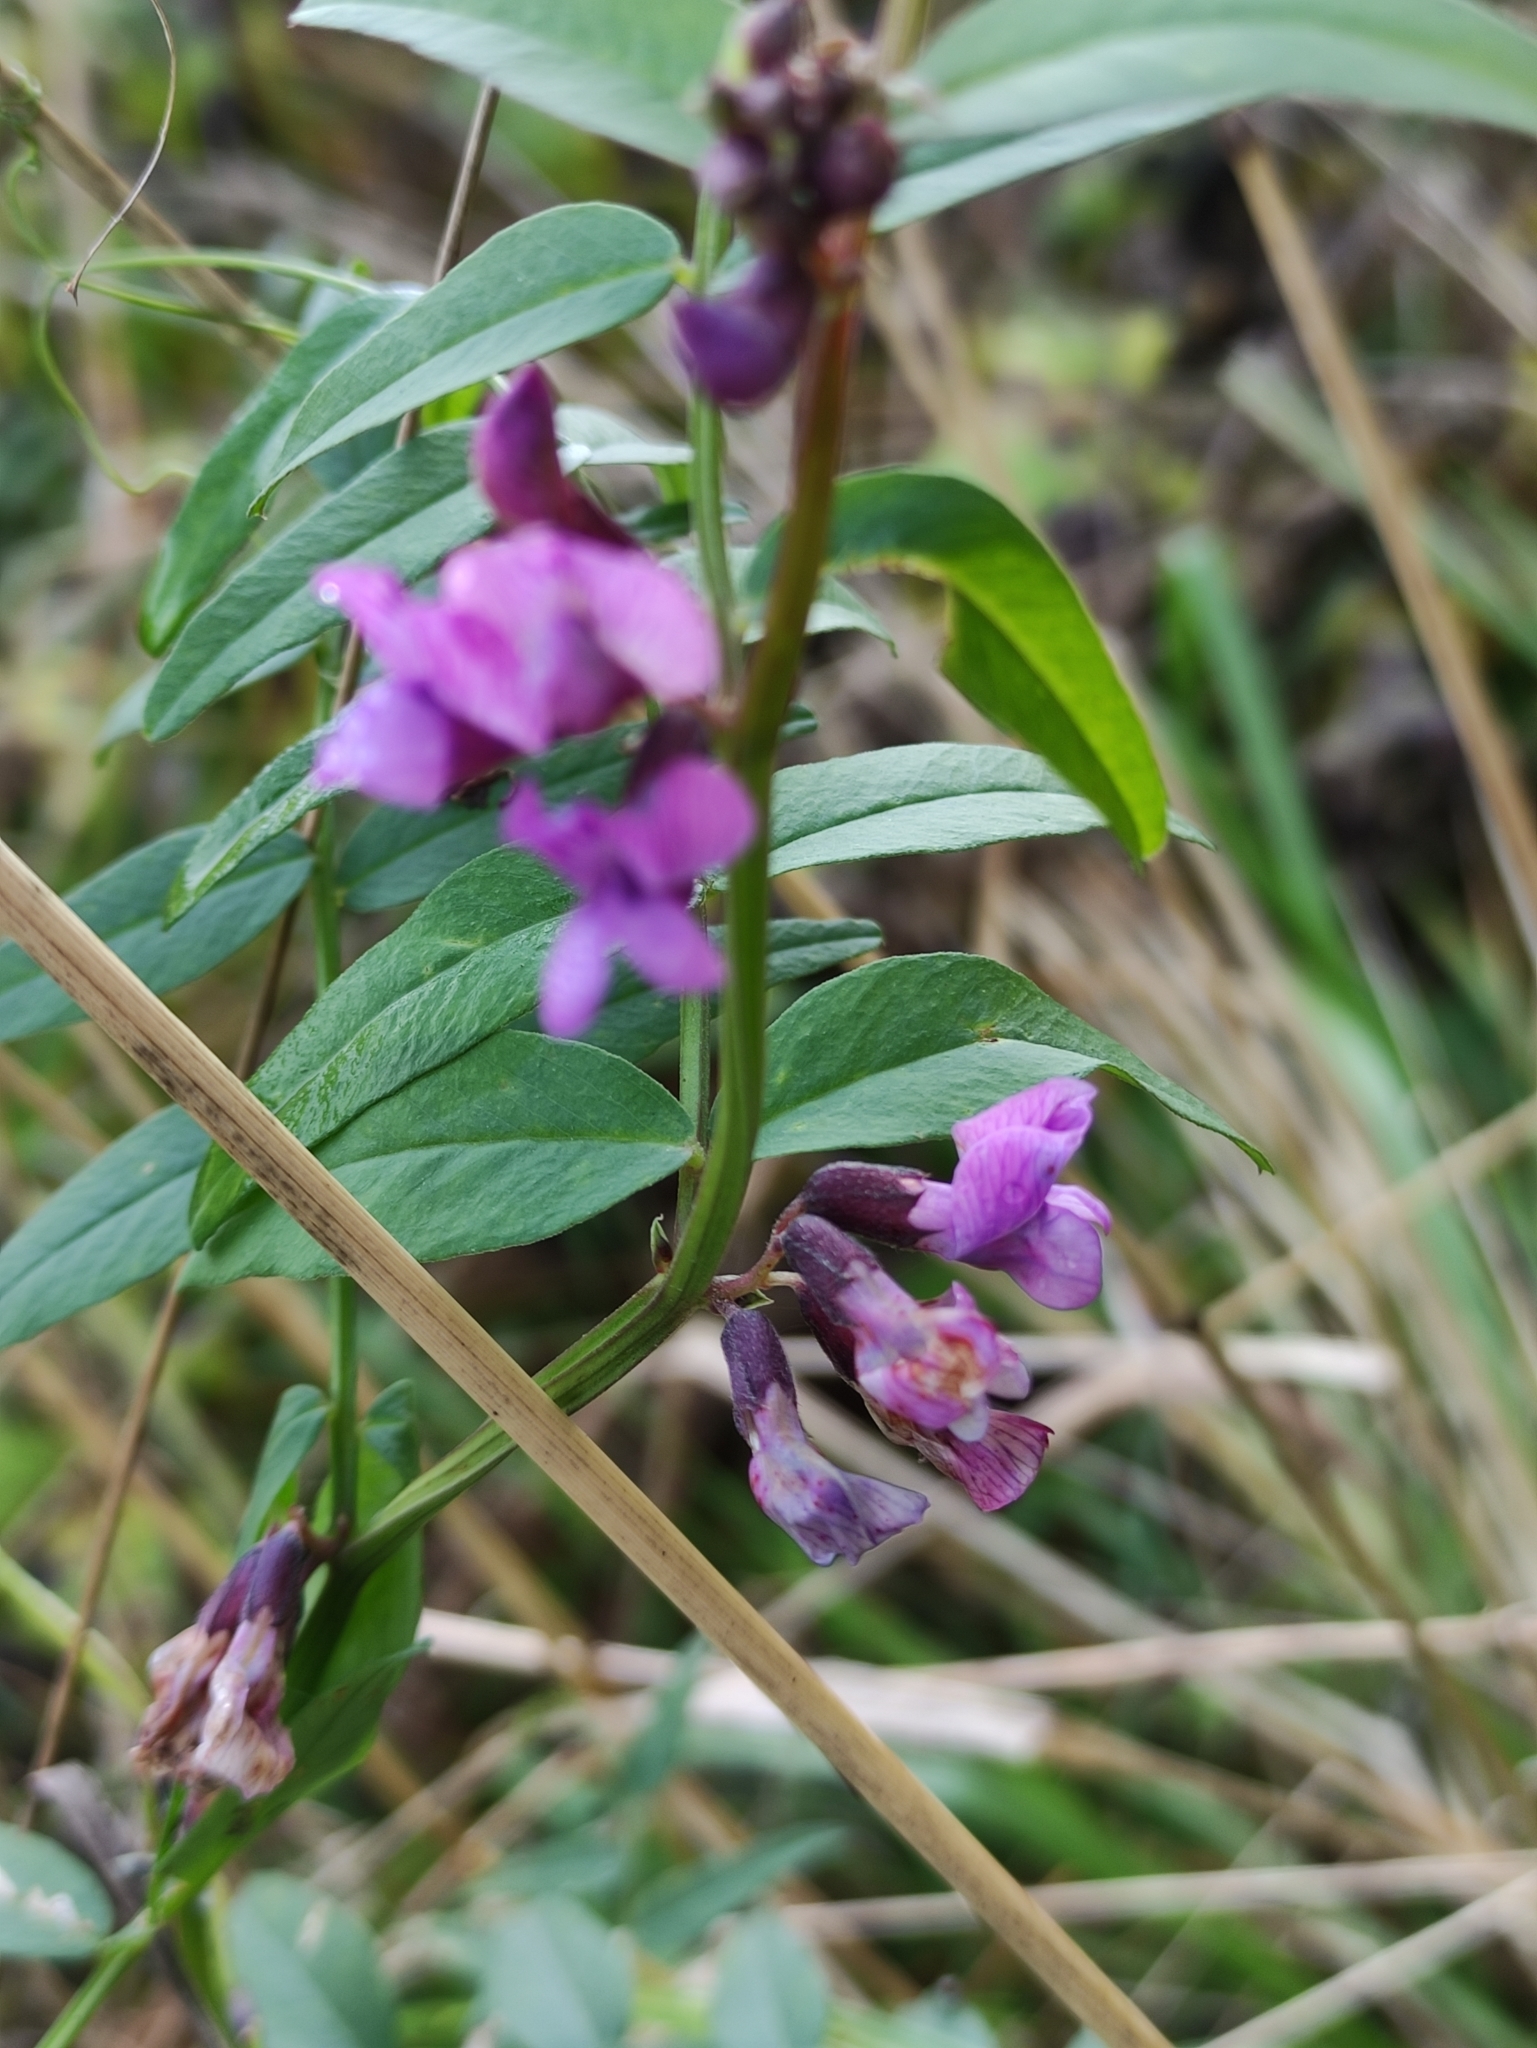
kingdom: Plantae
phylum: Tracheophyta
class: Magnoliopsida
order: Fabales
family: Fabaceae
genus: Vicia
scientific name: Vicia sepium
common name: Bush vetch
